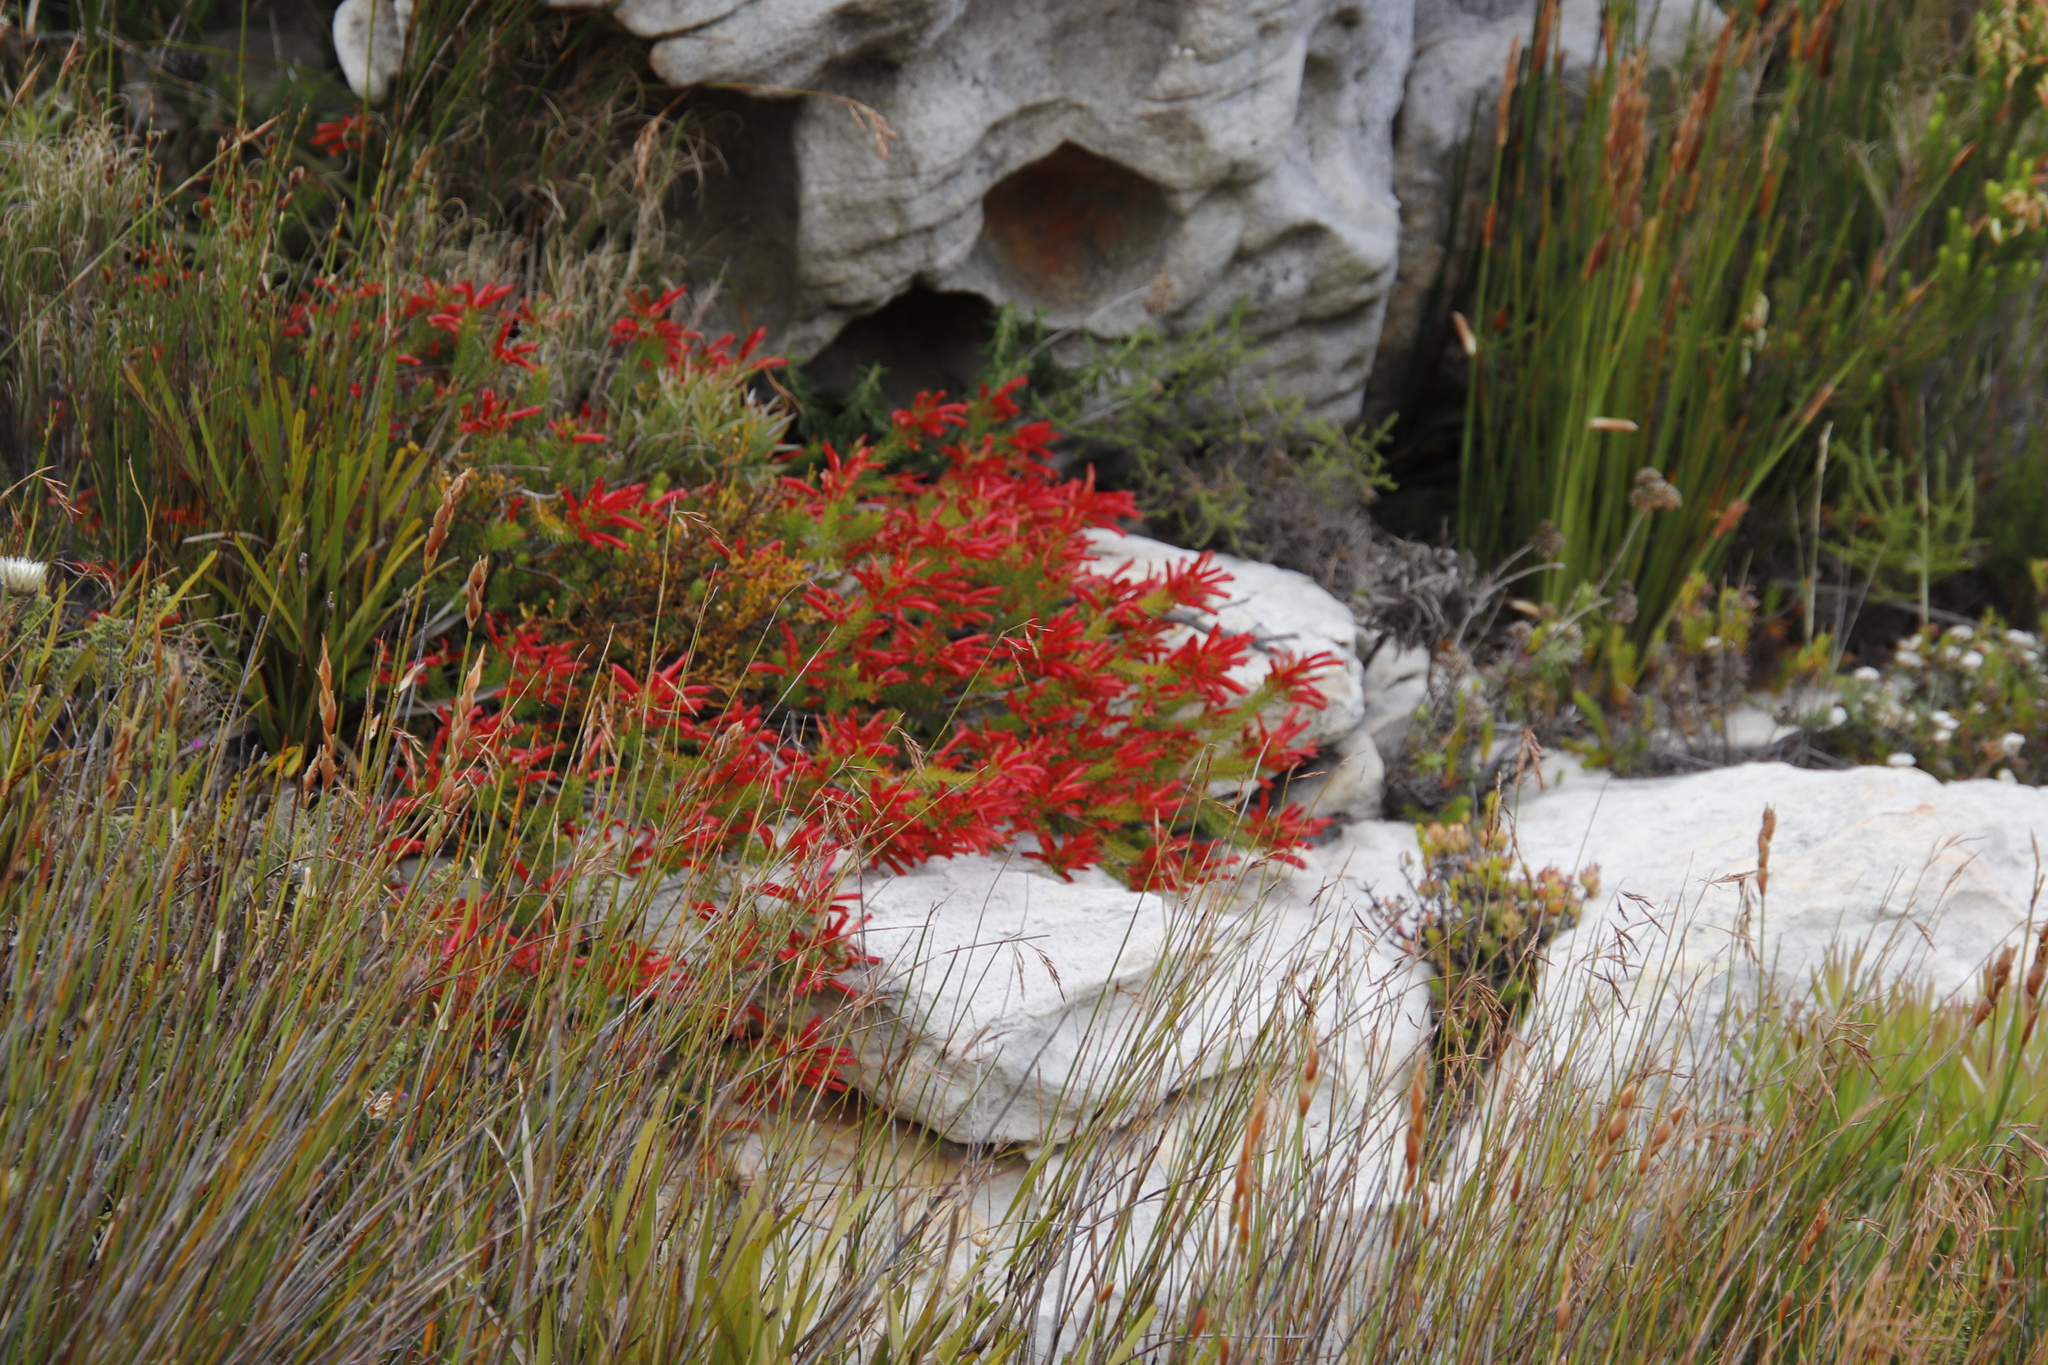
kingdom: Plantae
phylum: Tracheophyta
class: Magnoliopsida
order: Ericales
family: Ericaceae
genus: Erica
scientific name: Erica nevillei
